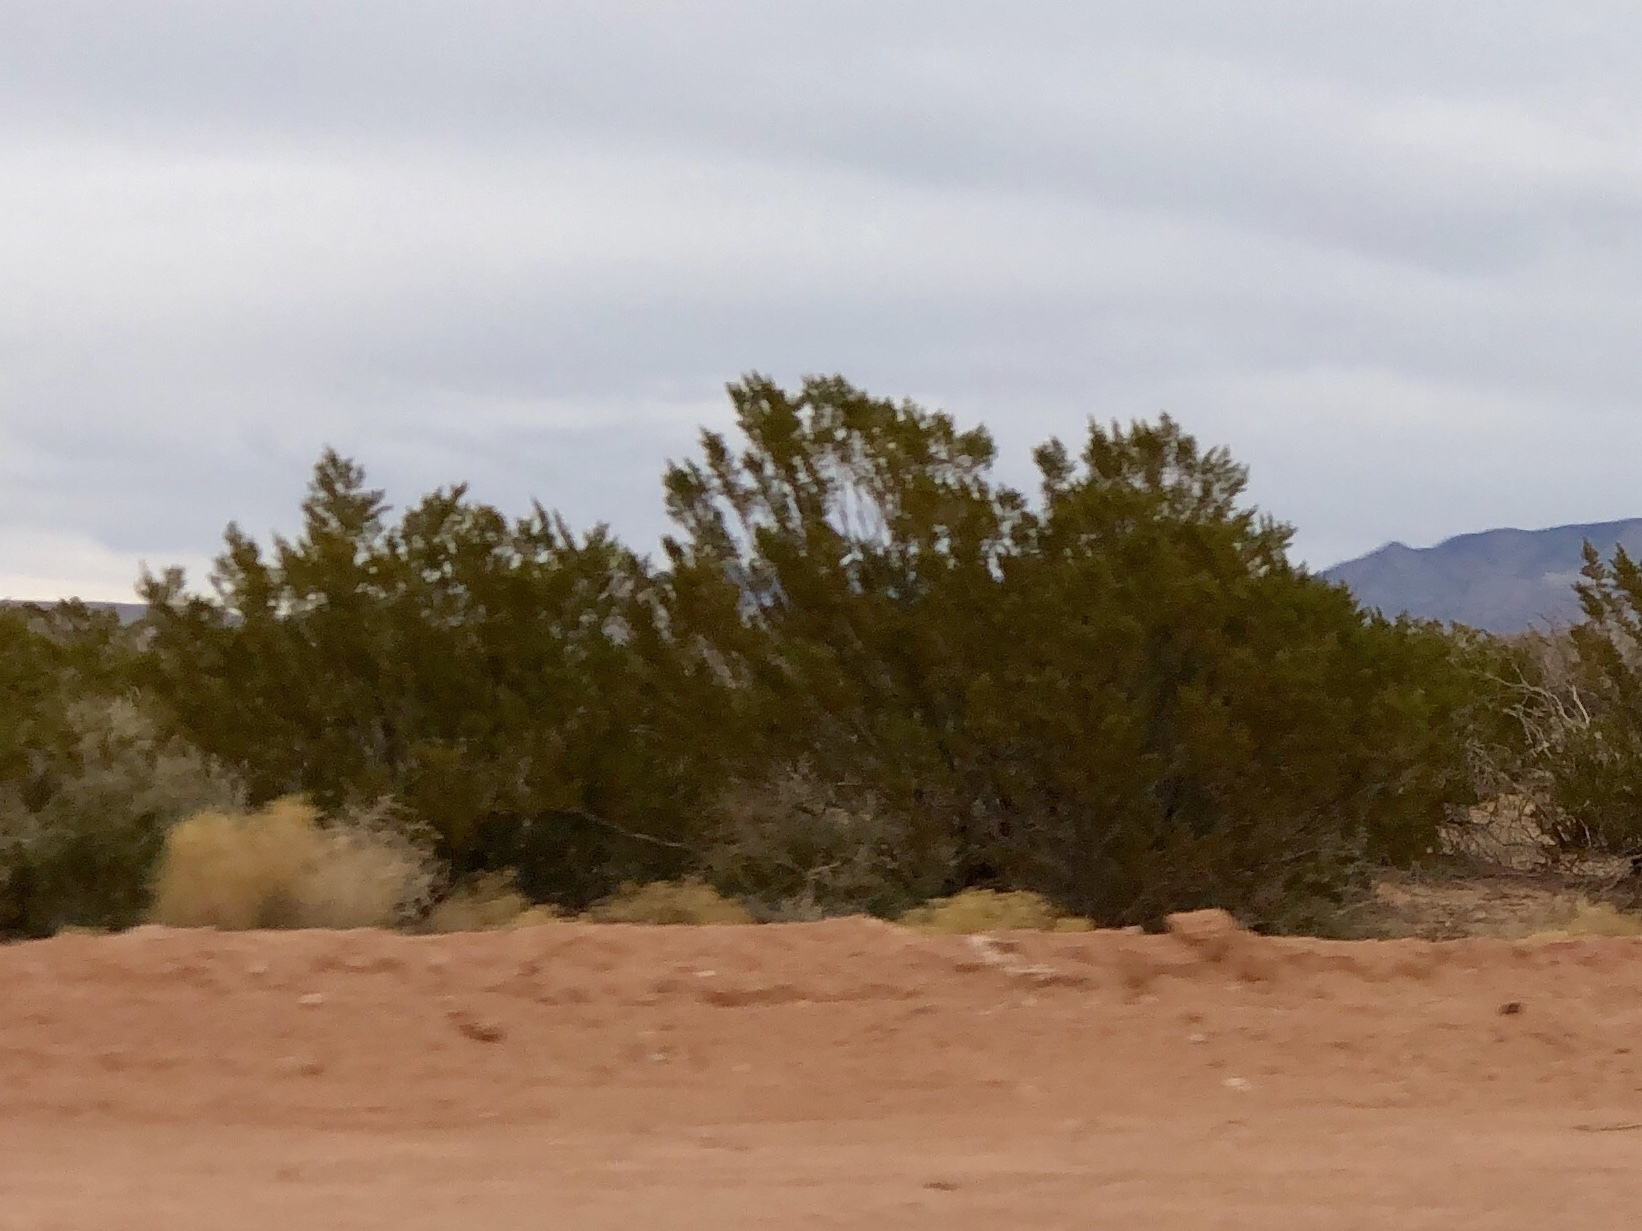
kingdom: Plantae
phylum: Tracheophyta
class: Magnoliopsida
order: Zygophyllales
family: Zygophyllaceae
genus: Larrea
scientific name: Larrea tridentata
